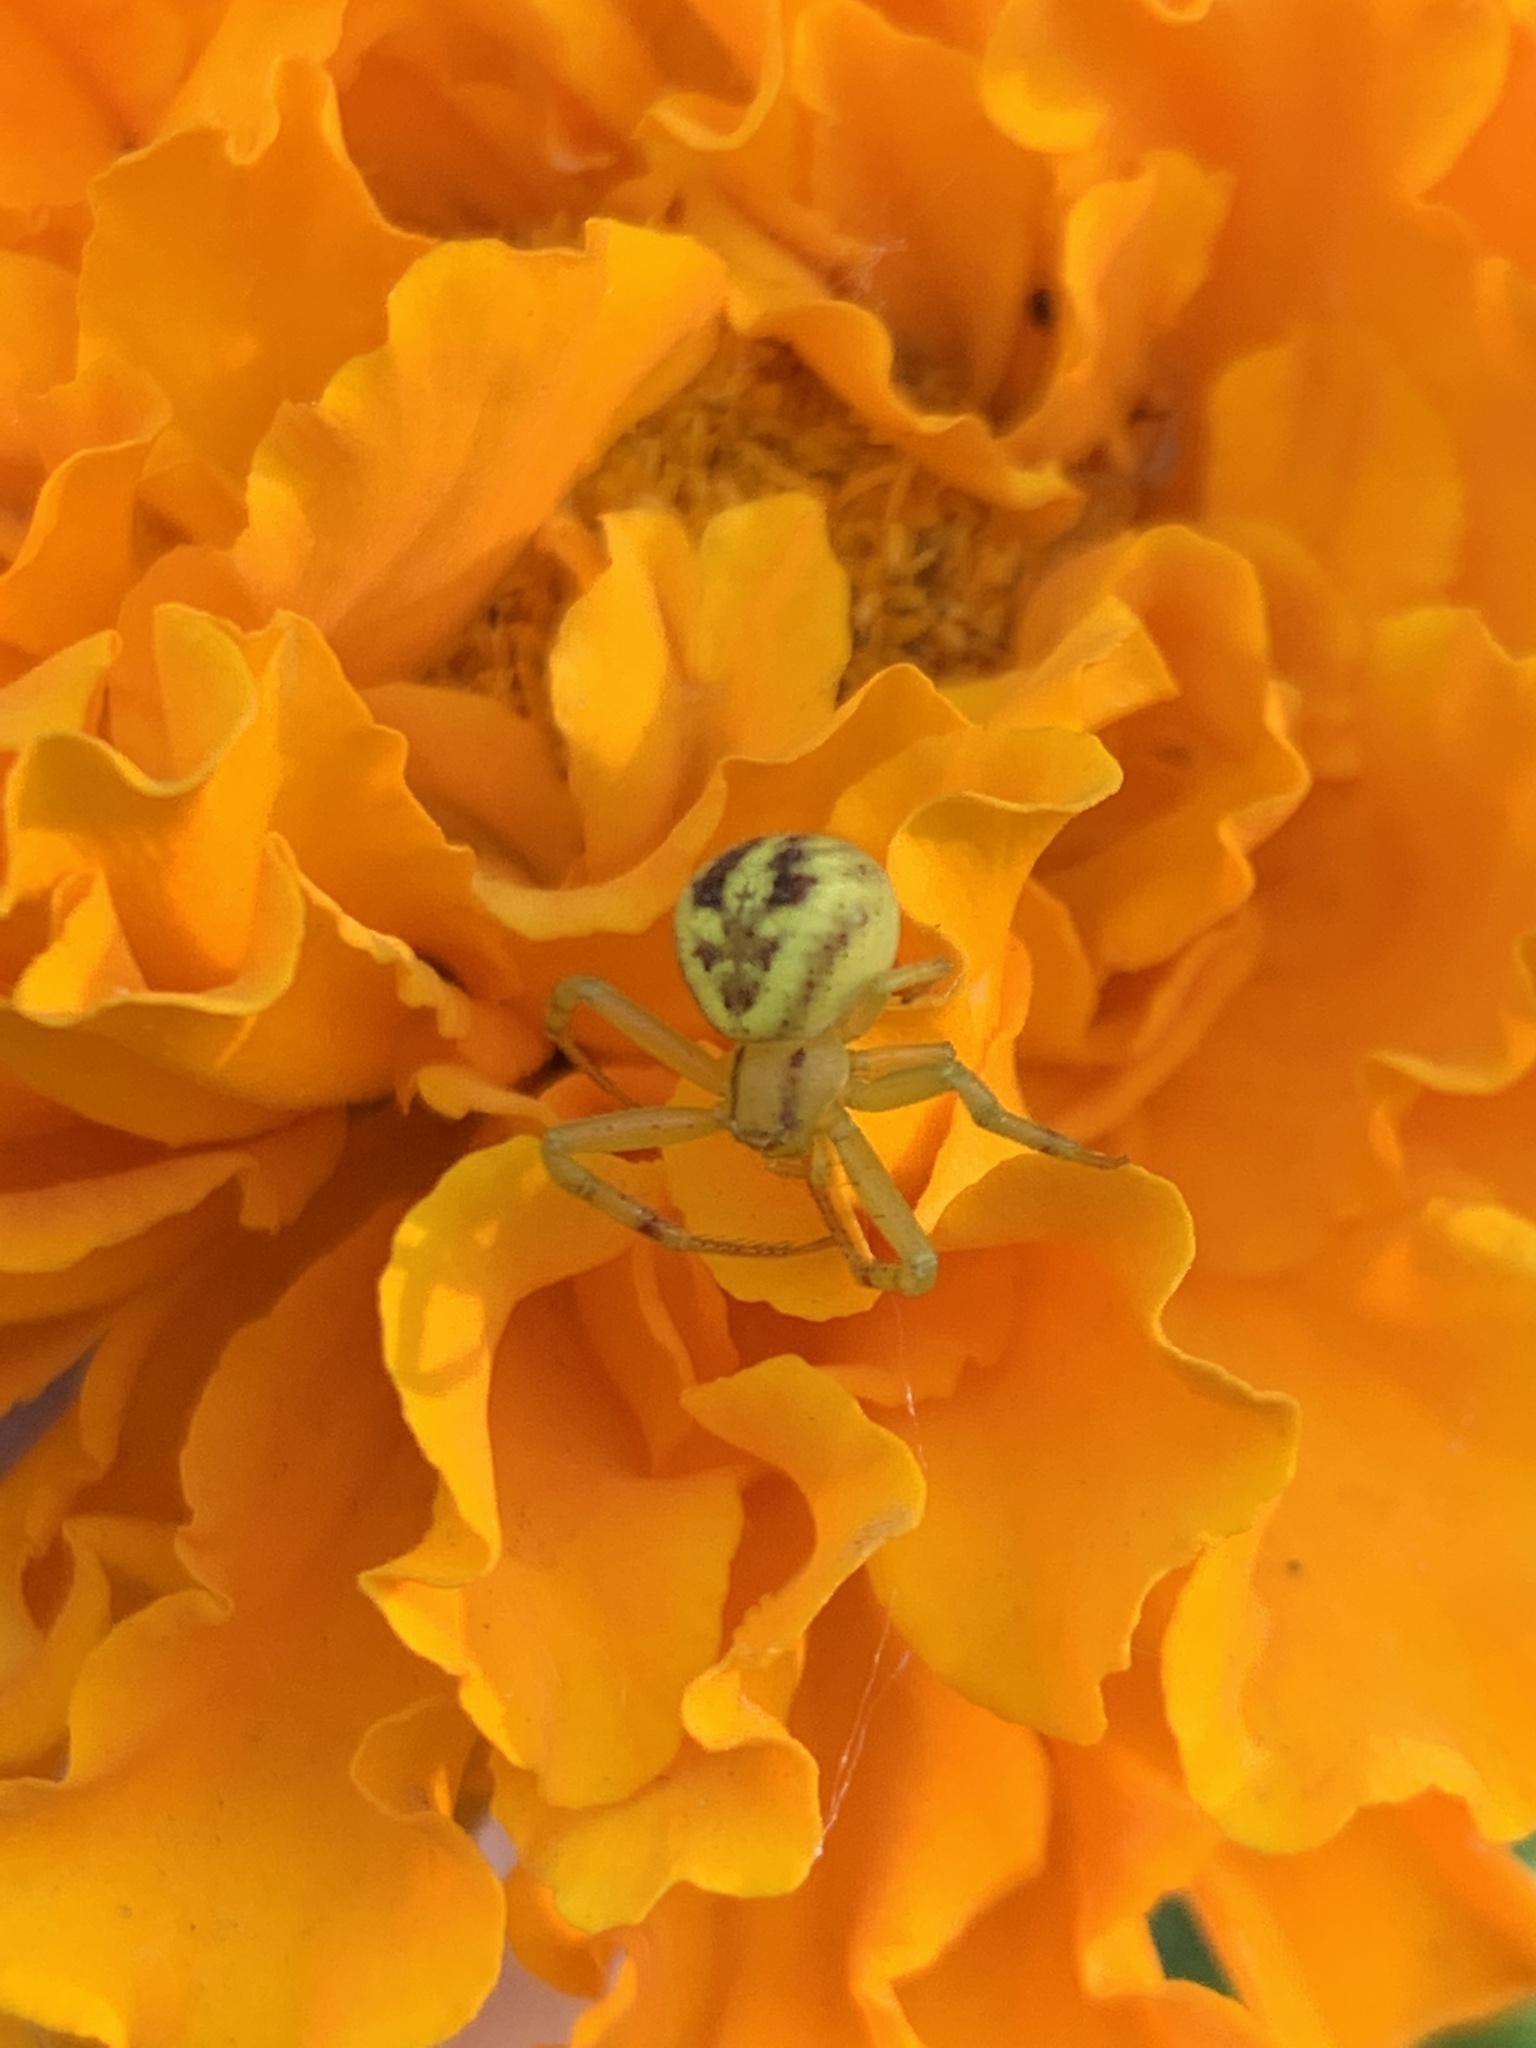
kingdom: Animalia
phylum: Arthropoda
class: Arachnida
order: Araneae
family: Thomisidae
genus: Misumenops
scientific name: Misumenops
